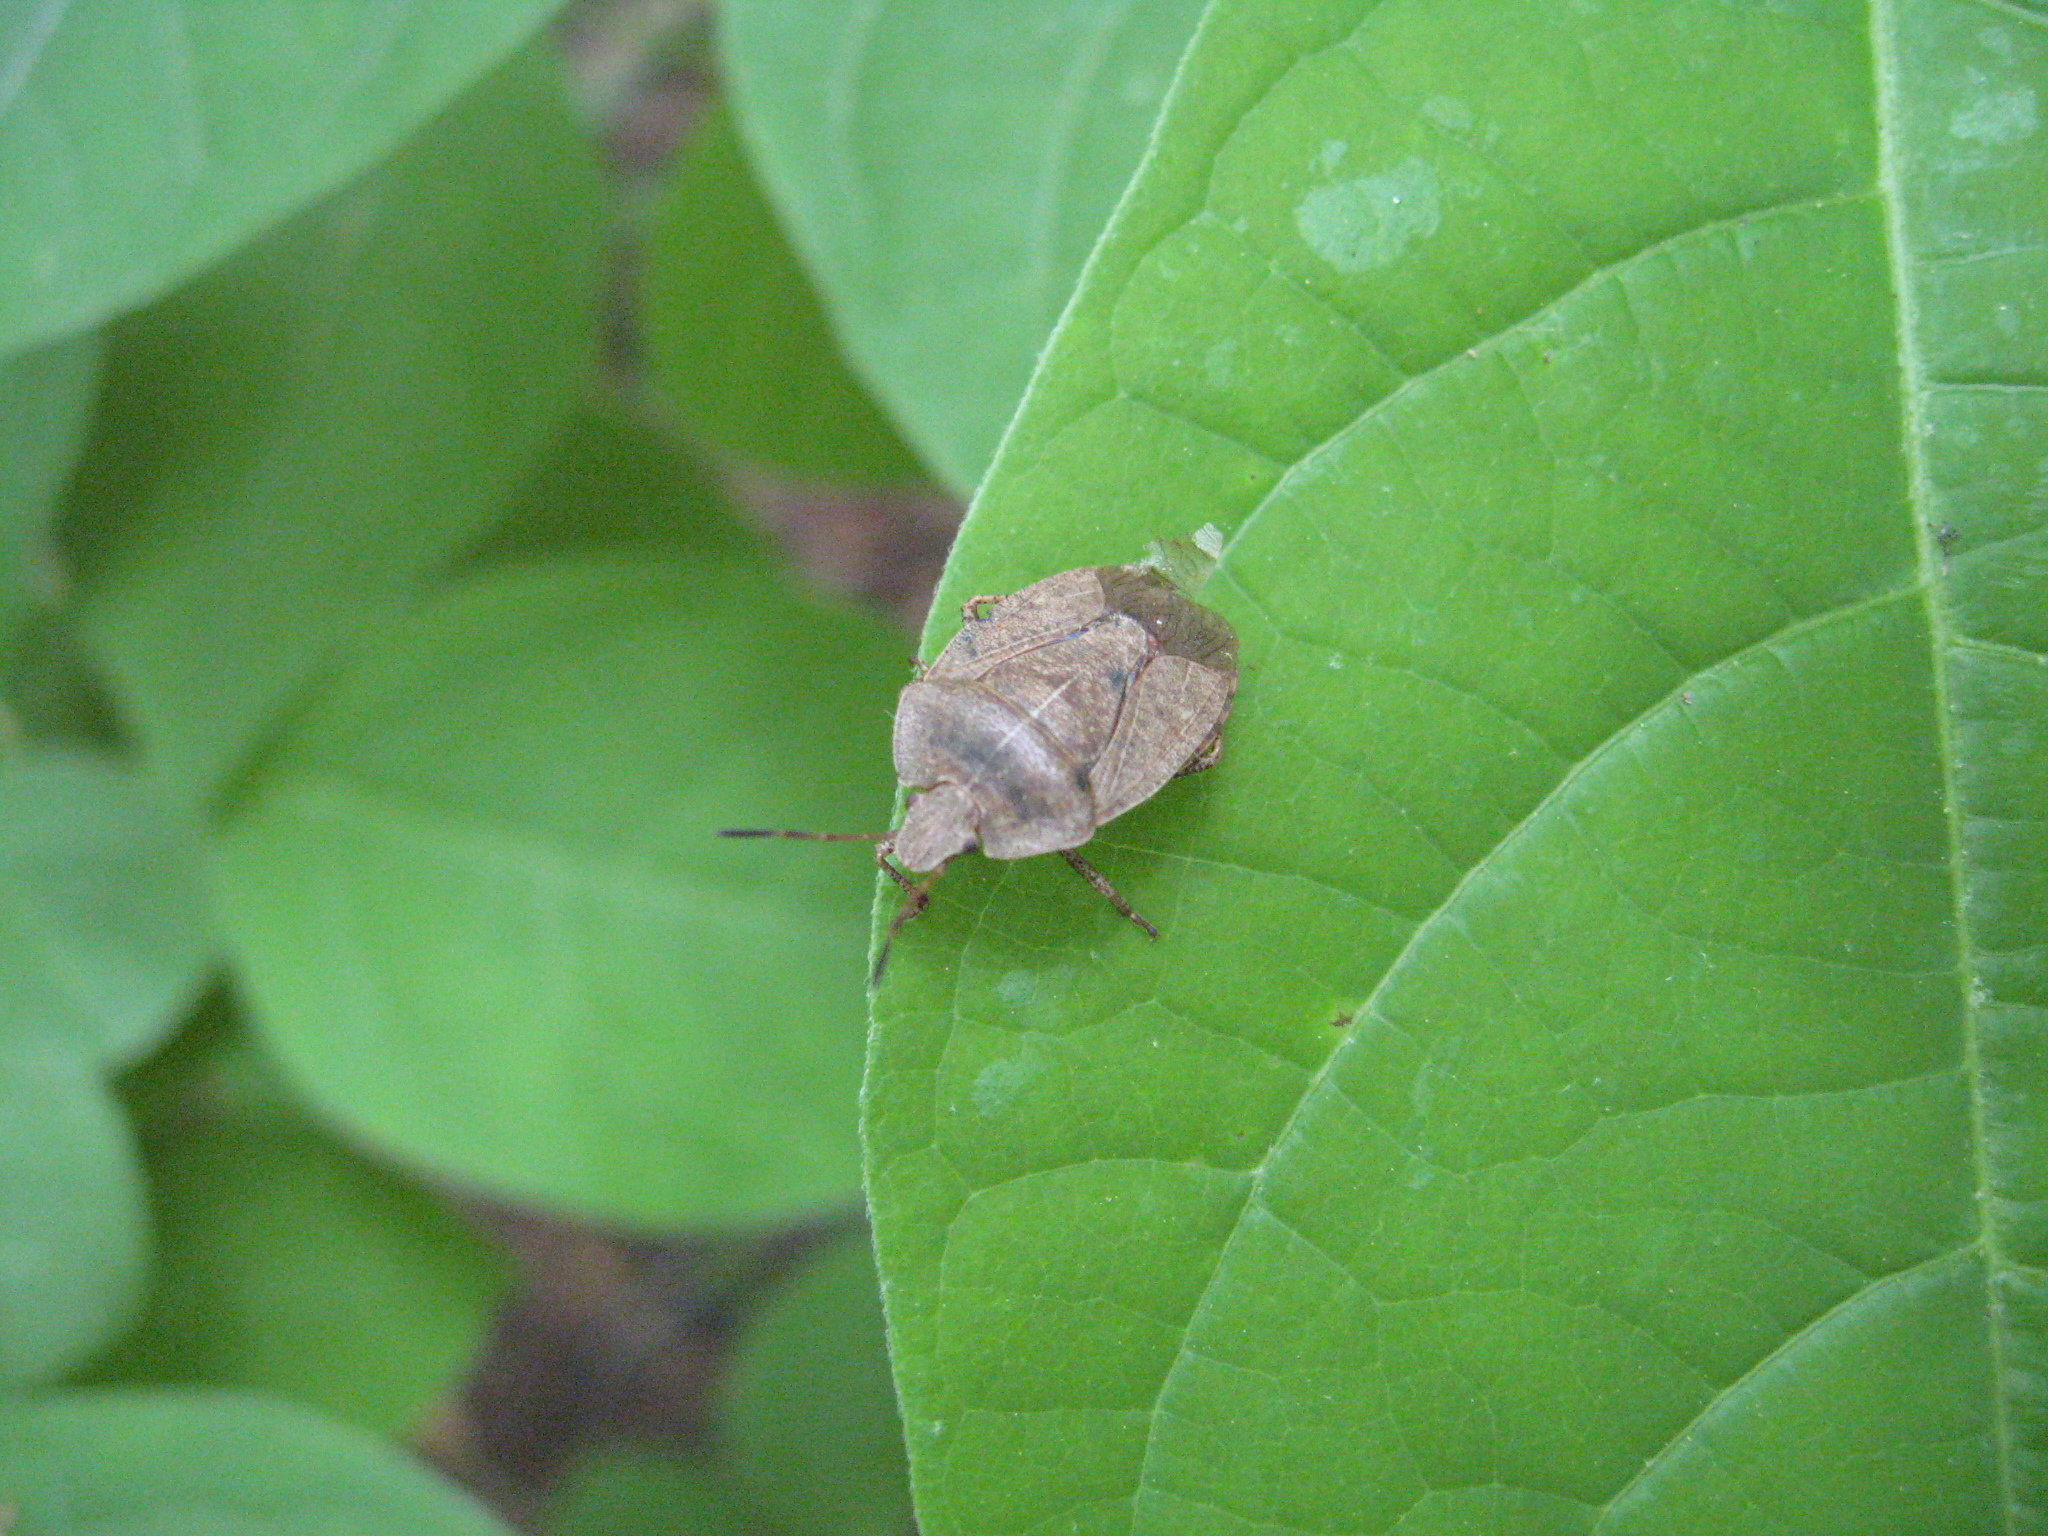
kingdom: Animalia
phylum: Arthropoda
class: Insecta
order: Hemiptera
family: Pentatomidae
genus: Menecles
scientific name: Menecles insertus
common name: Elf shoe stink bug
